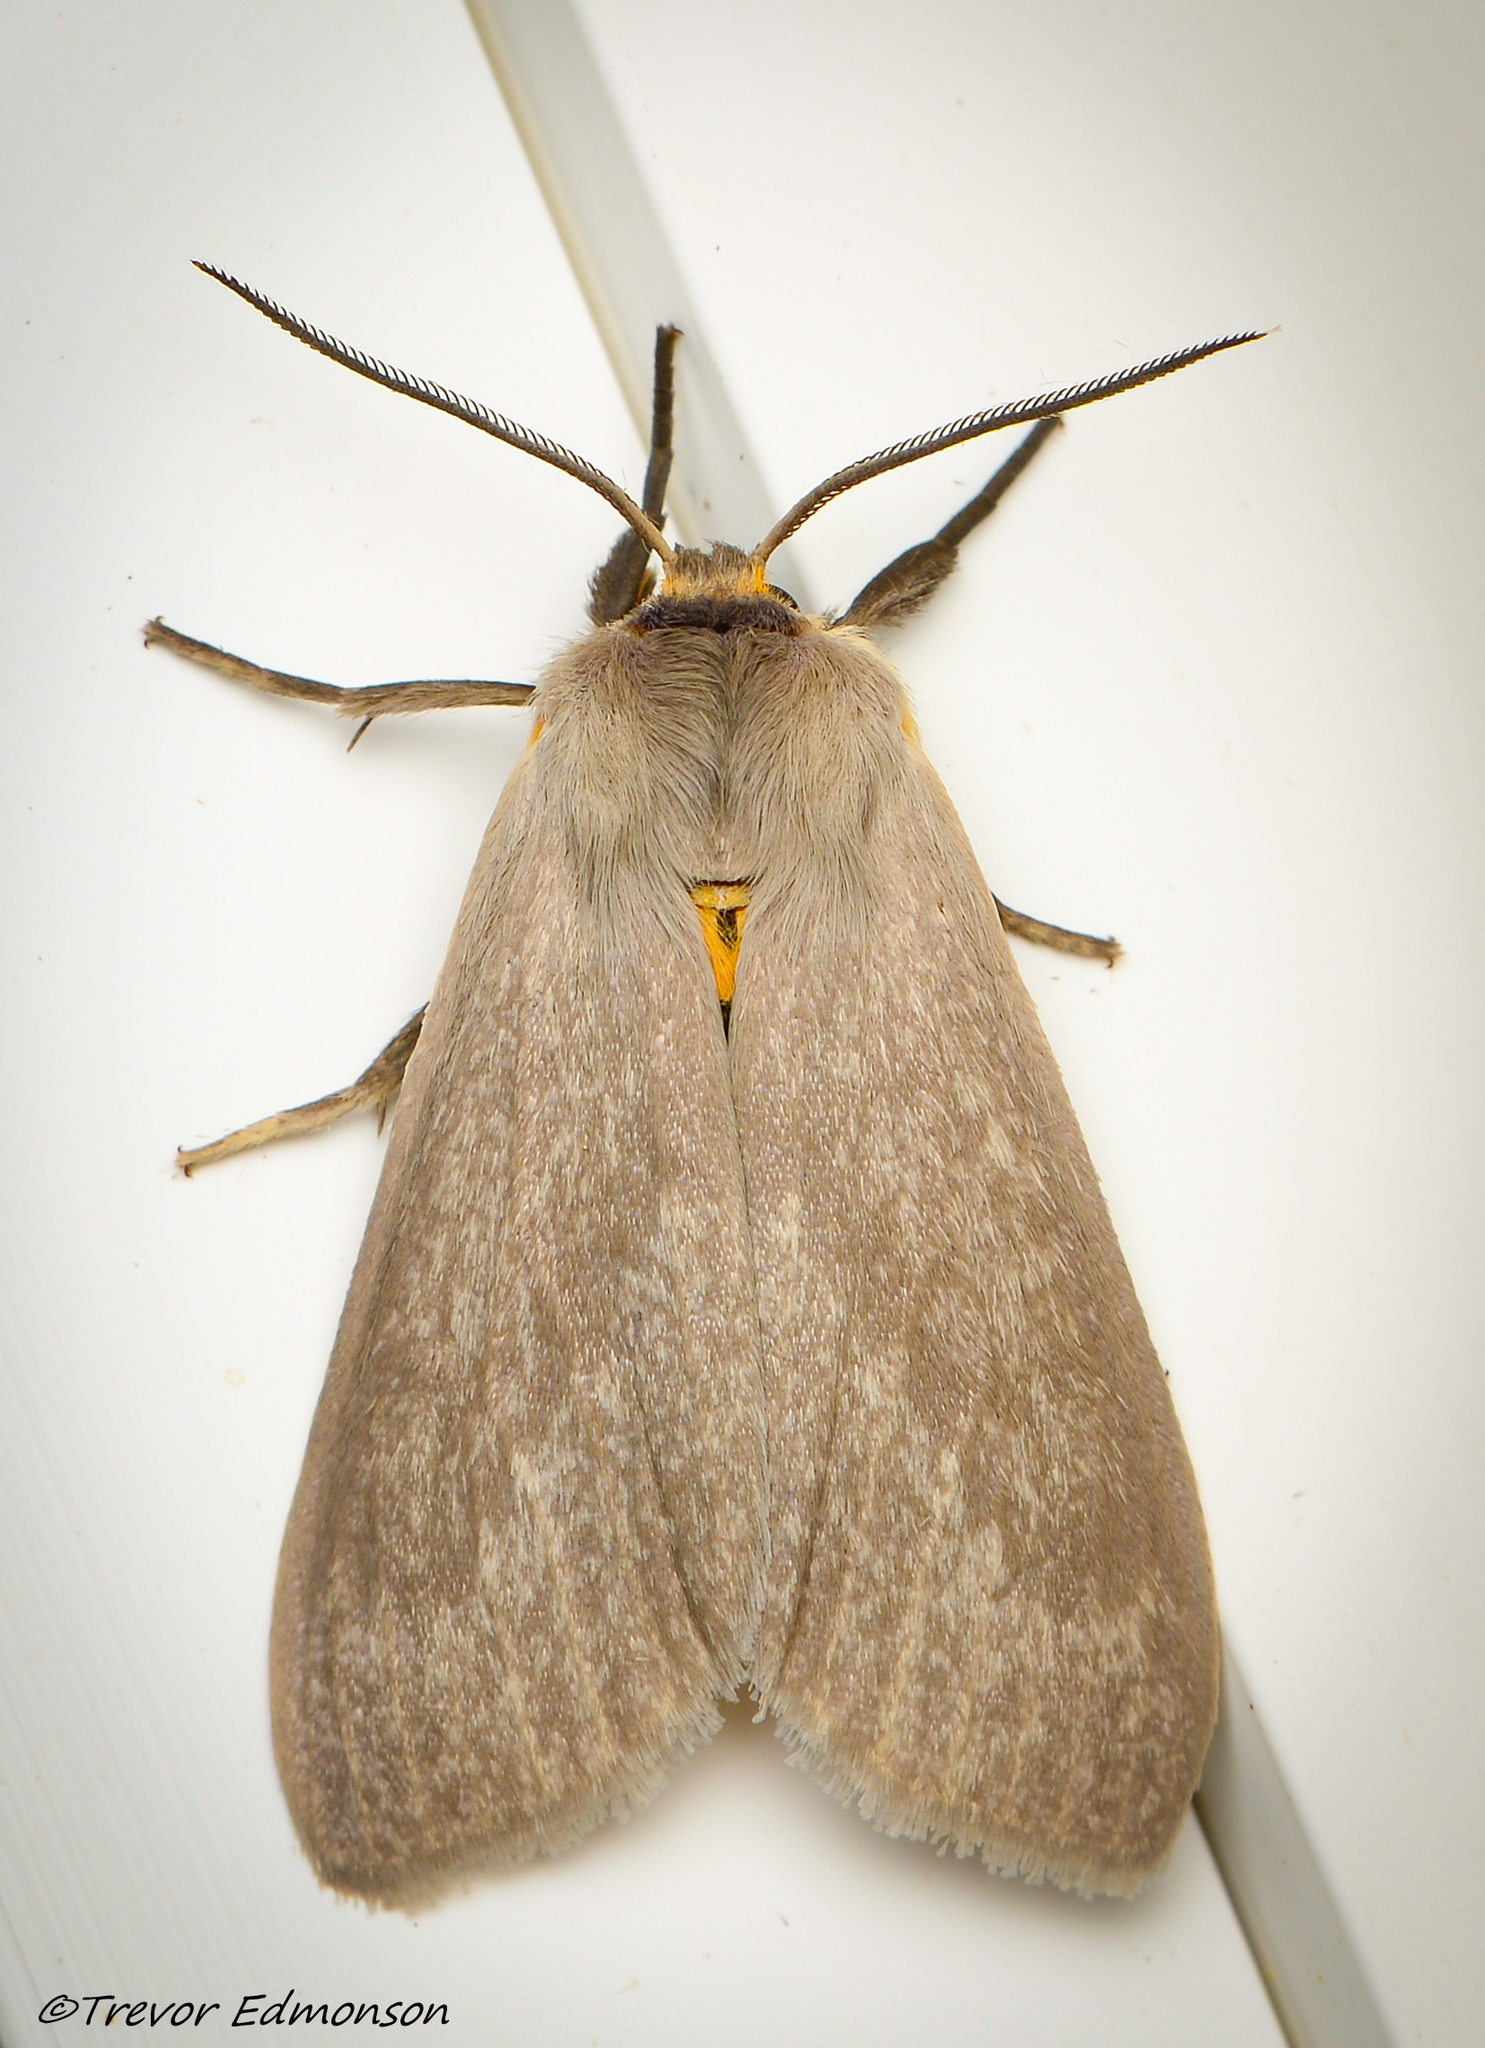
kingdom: Animalia
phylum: Arthropoda
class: Insecta
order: Lepidoptera
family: Erebidae
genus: Euchaetes
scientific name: Euchaetes egle
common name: Milkweed tussock moth
